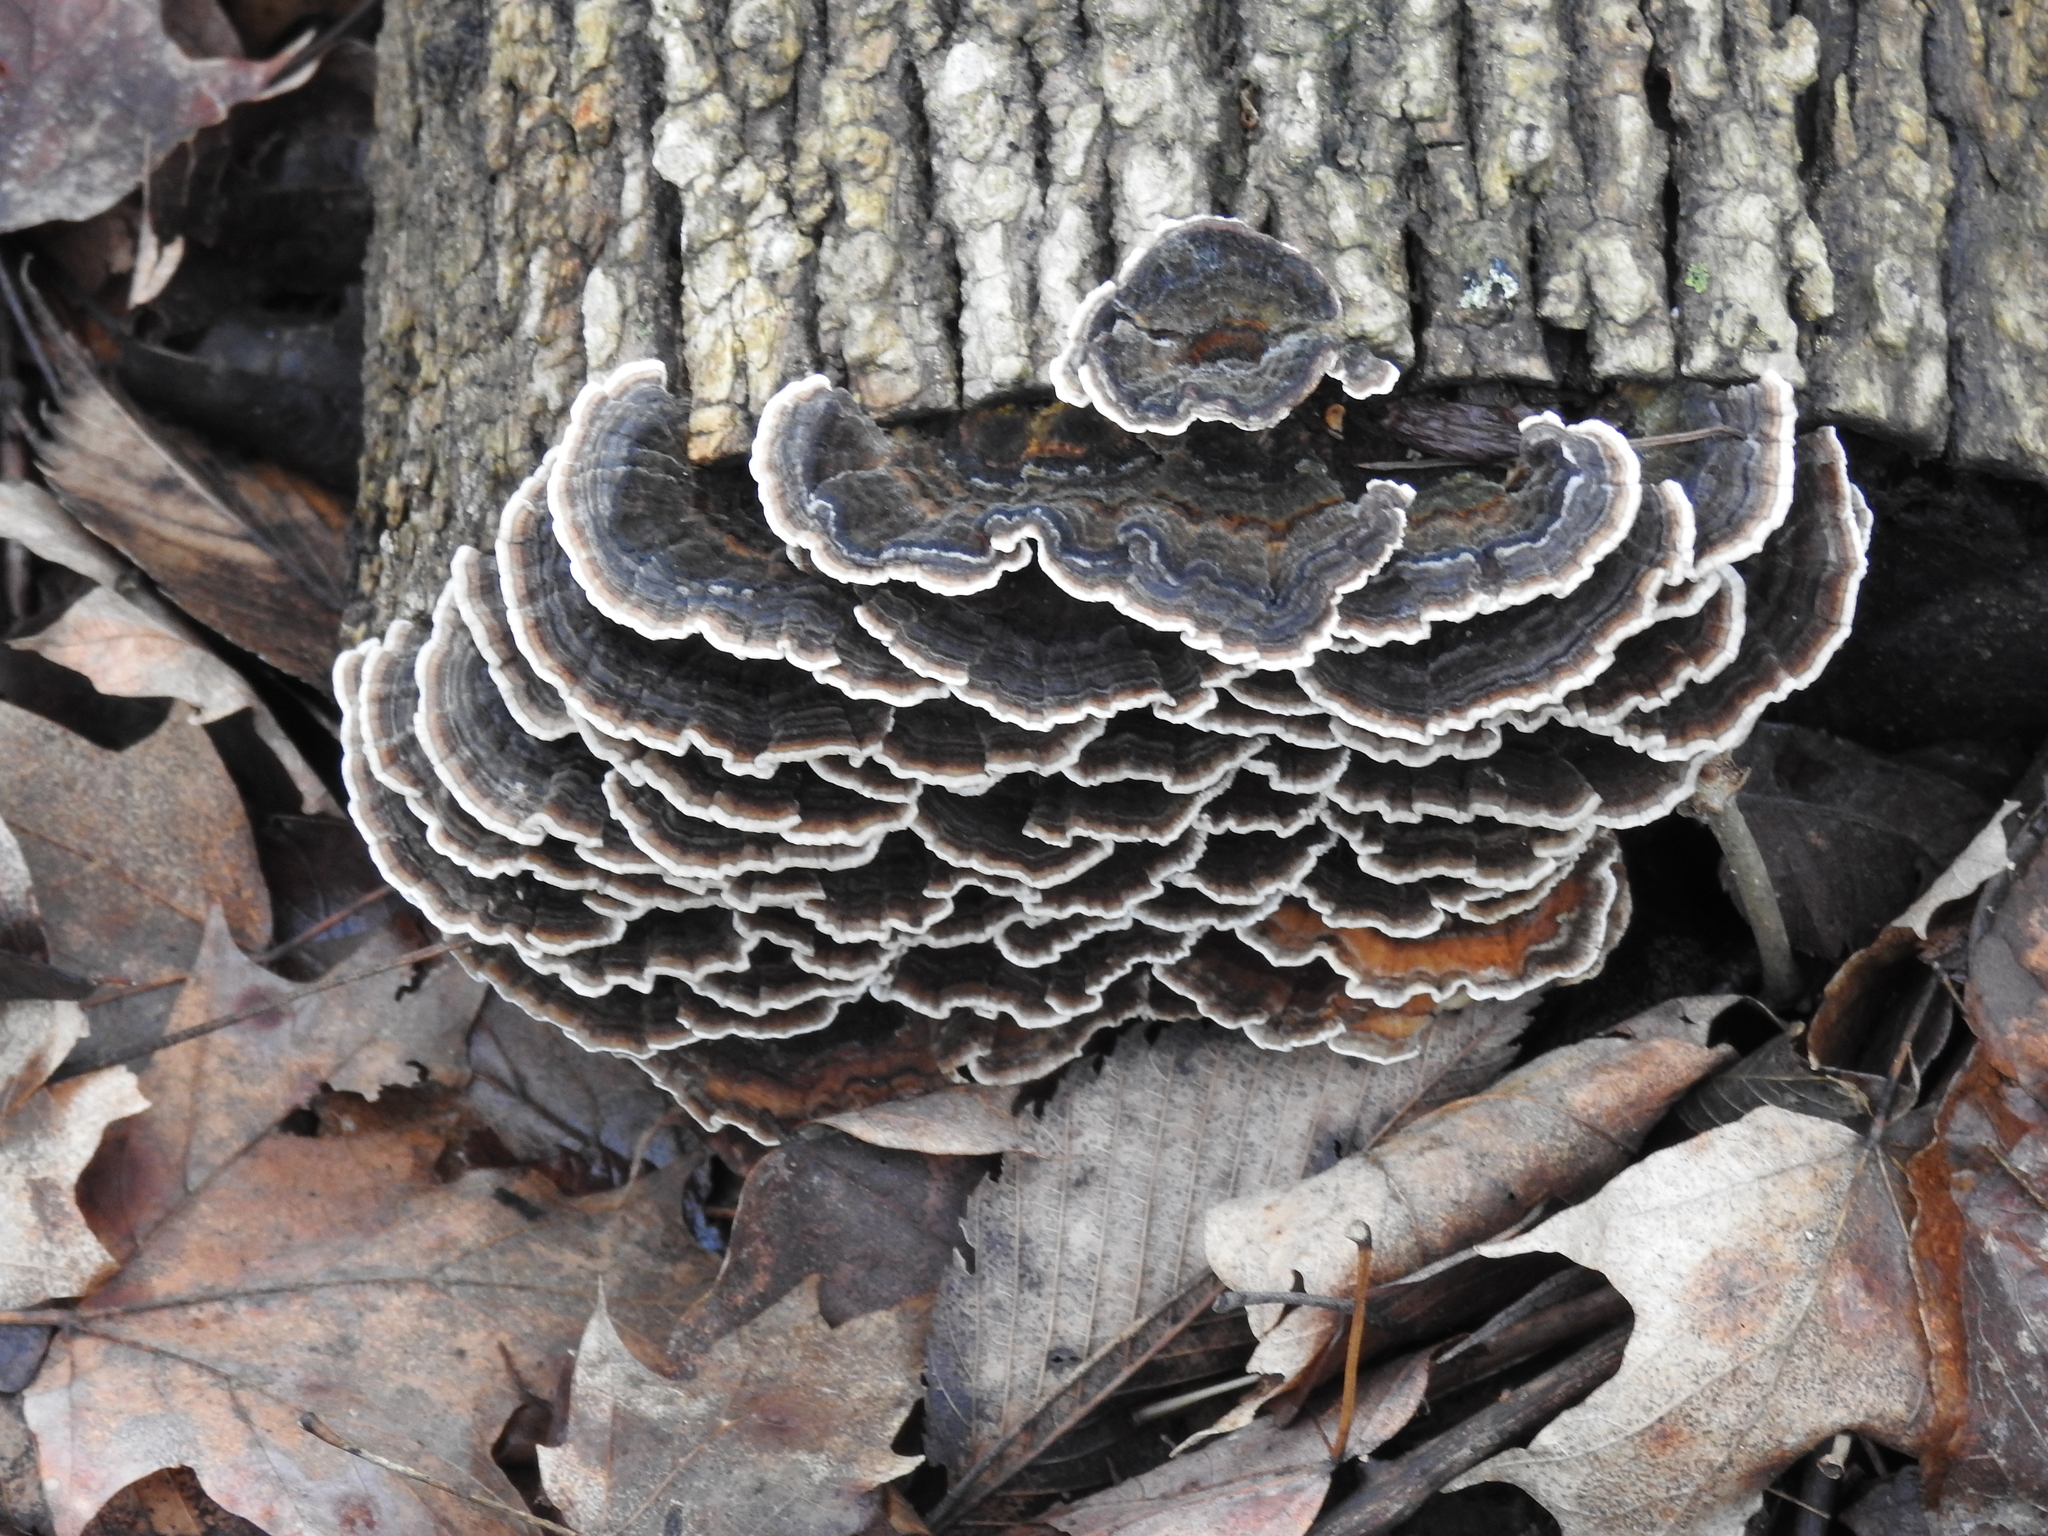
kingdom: Fungi
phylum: Basidiomycota
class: Agaricomycetes
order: Polyporales
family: Polyporaceae
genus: Trametes
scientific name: Trametes versicolor
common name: Turkeytail
